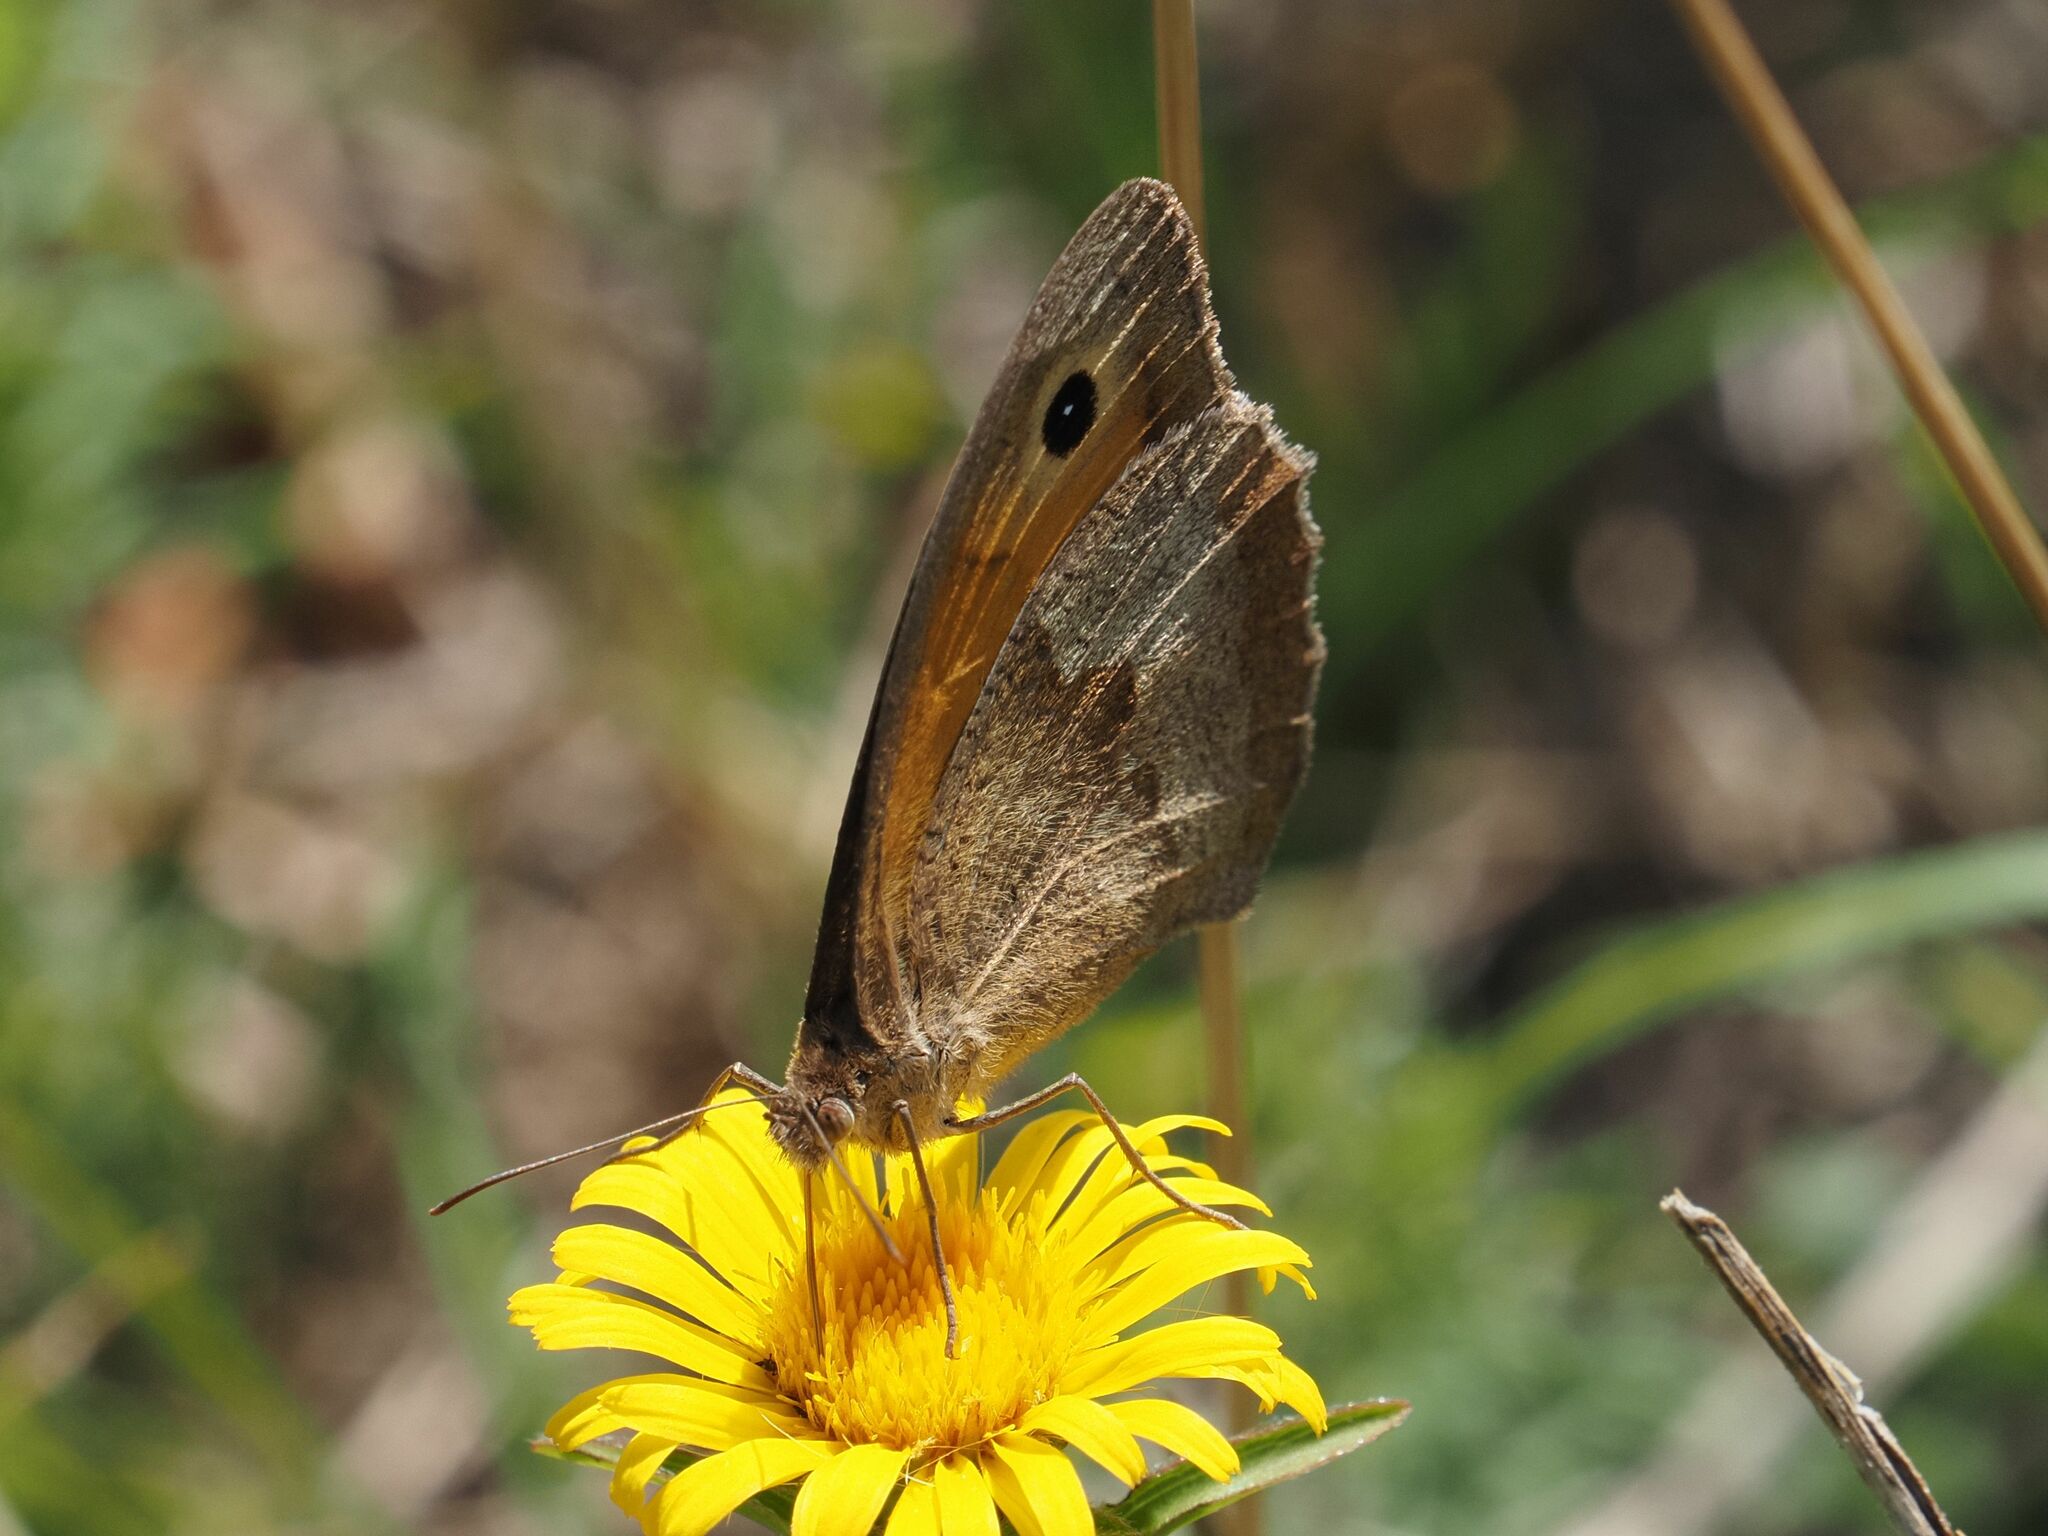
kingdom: Animalia
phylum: Arthropoda
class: Insecta
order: Lepidoptera
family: Nymphalidae
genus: Maniola
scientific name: Maniola jurtina
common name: Meadow brown
